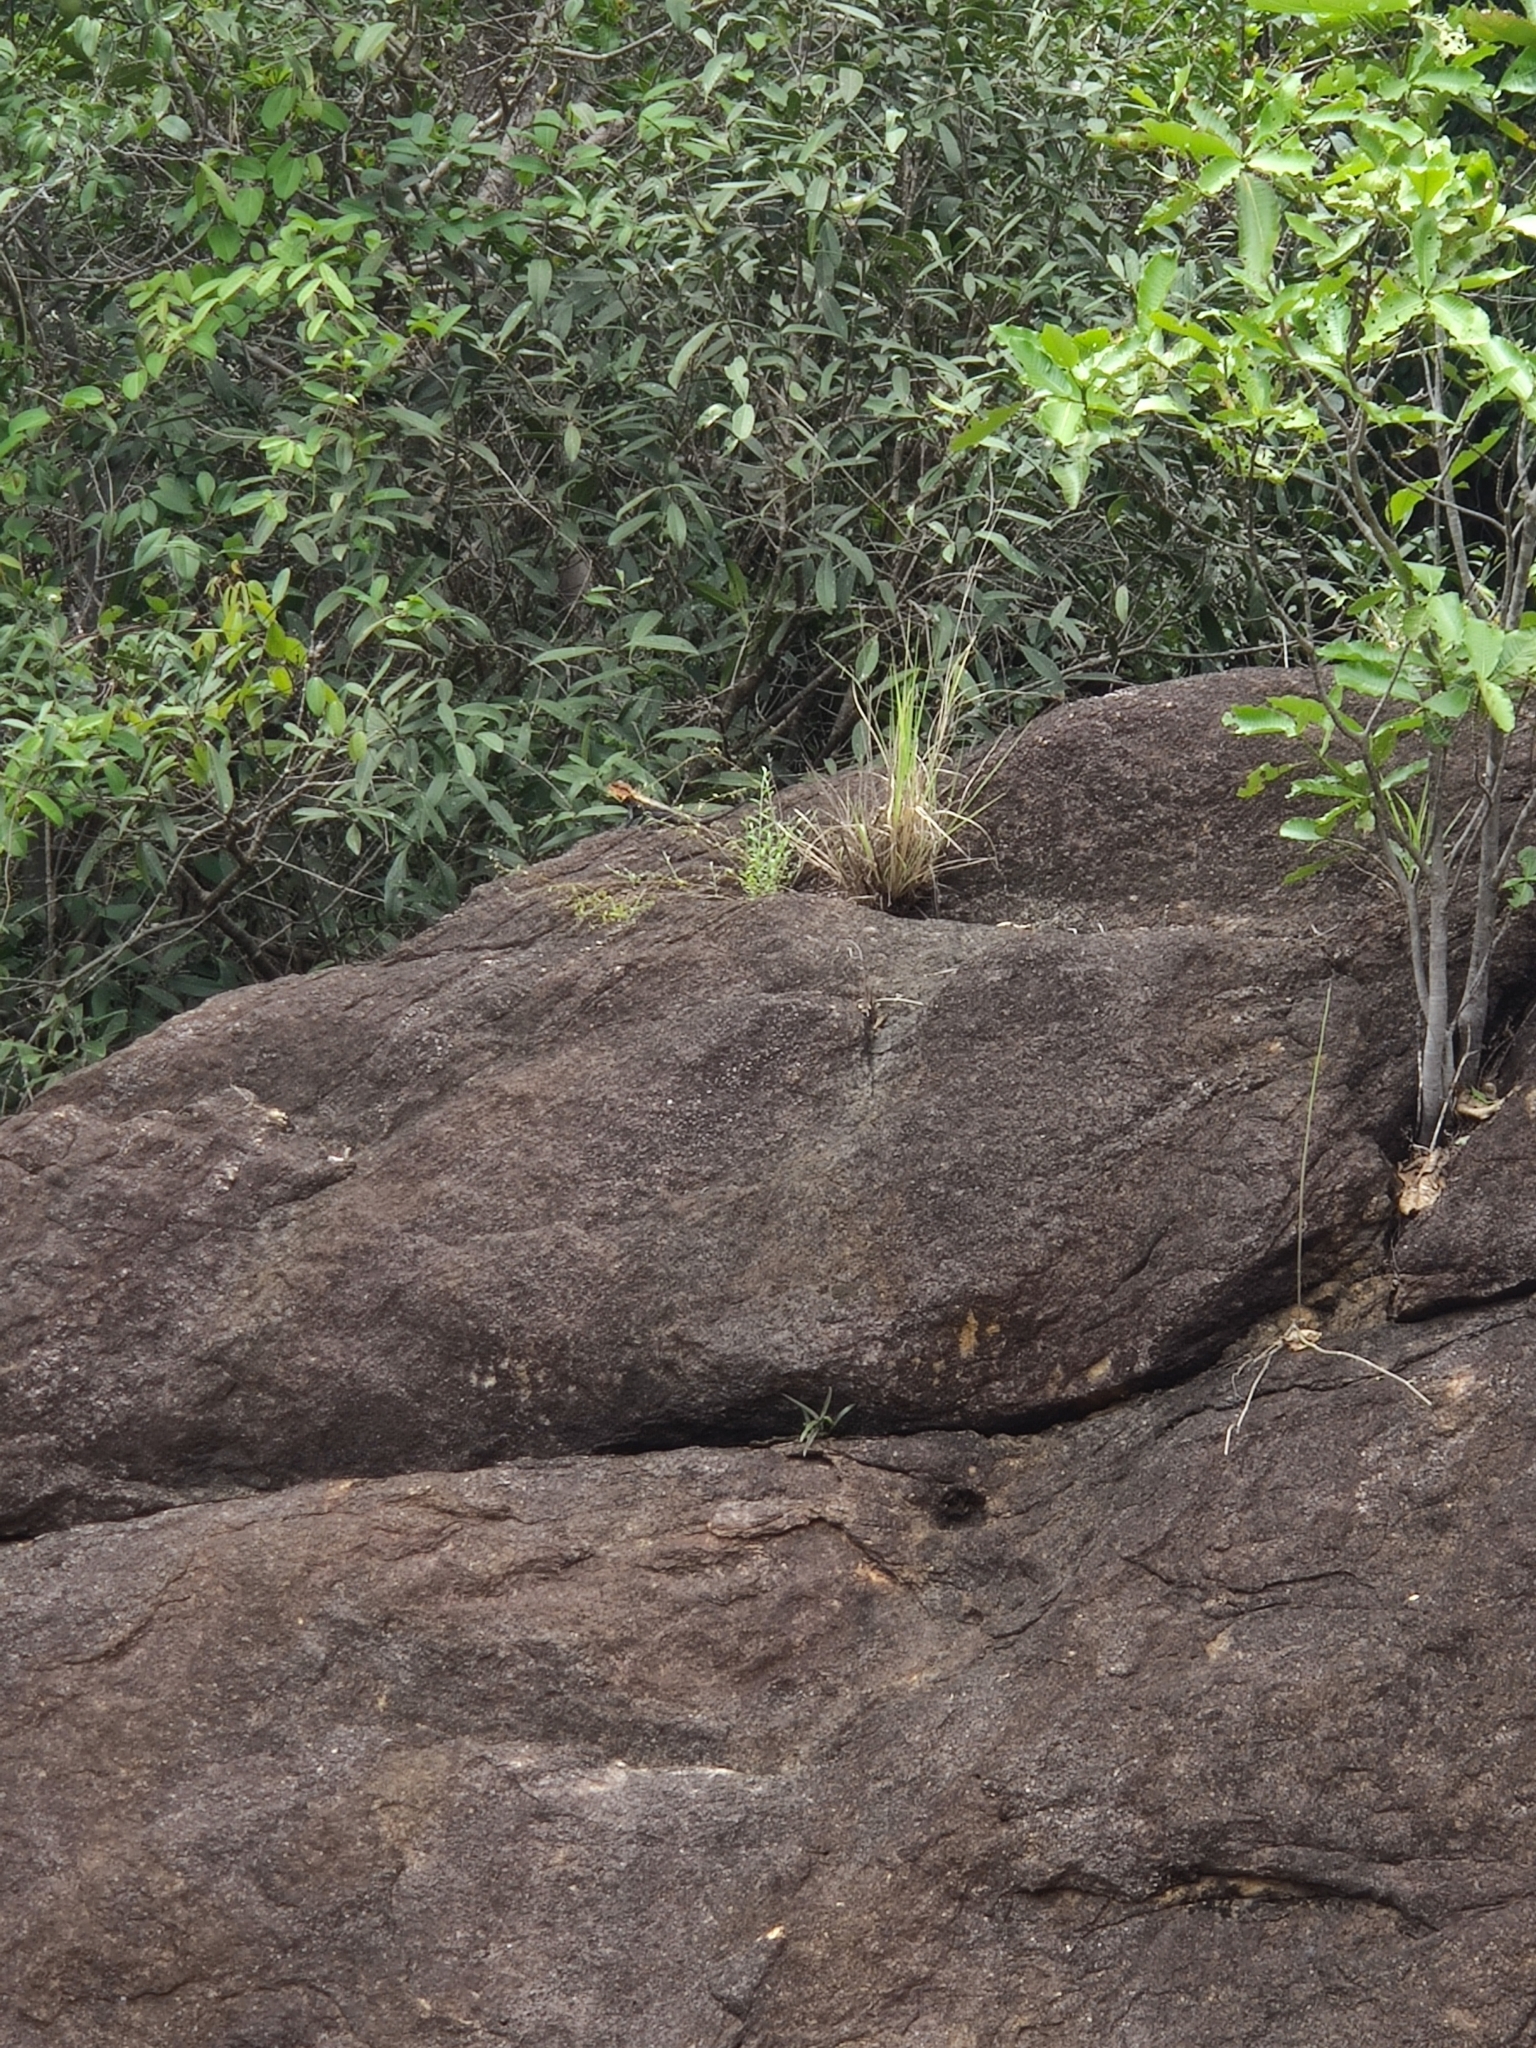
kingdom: Animalia
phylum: Chordata
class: Squamata
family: Agamidae
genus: Psammophilus
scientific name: Psammophilus dorsalis
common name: South indian rock agama
